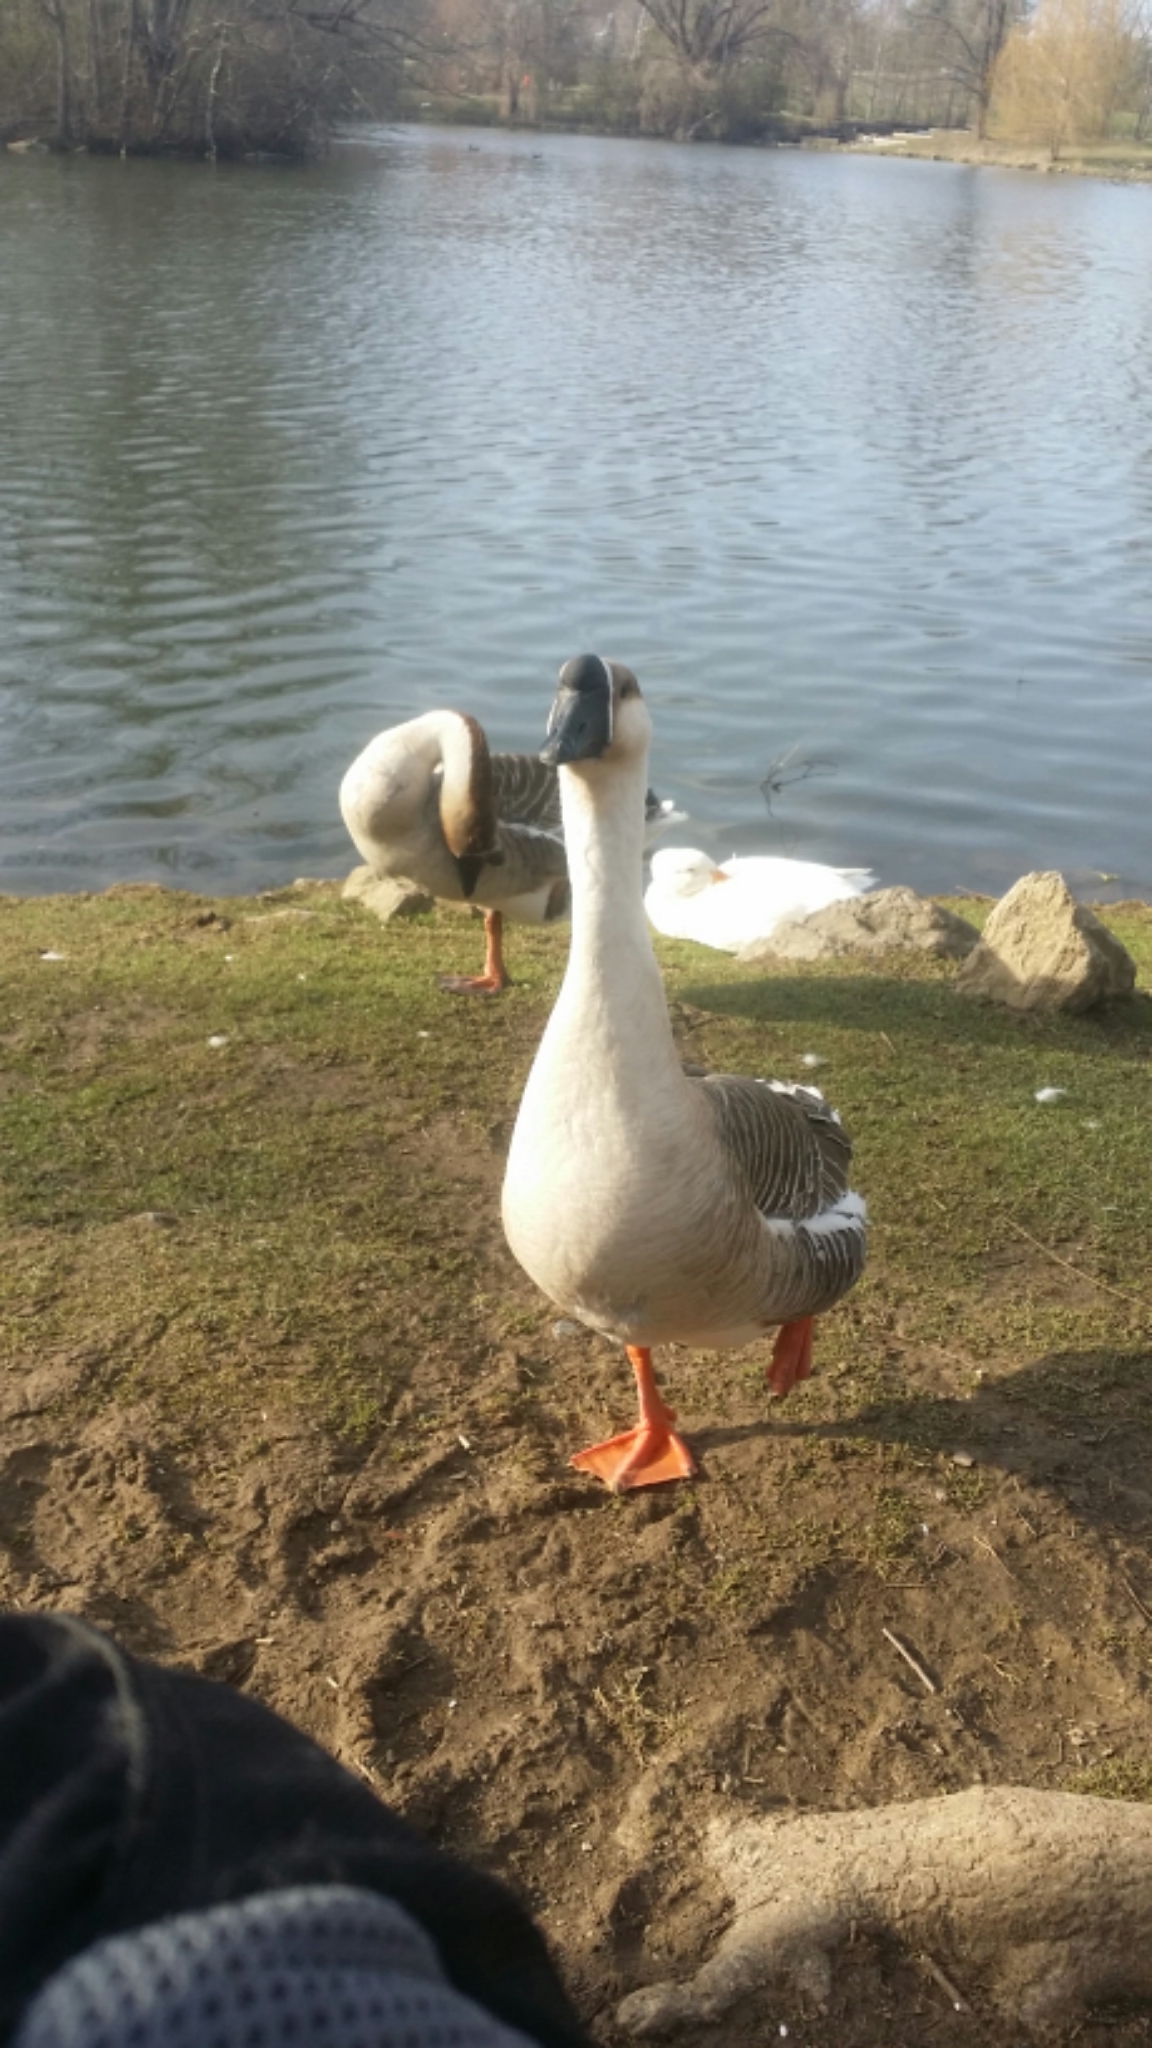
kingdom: Animalia
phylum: Chordata
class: Aves
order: Anseriformes
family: Anatidae
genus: Anser
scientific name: Anser cygnoides
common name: Swan goose
